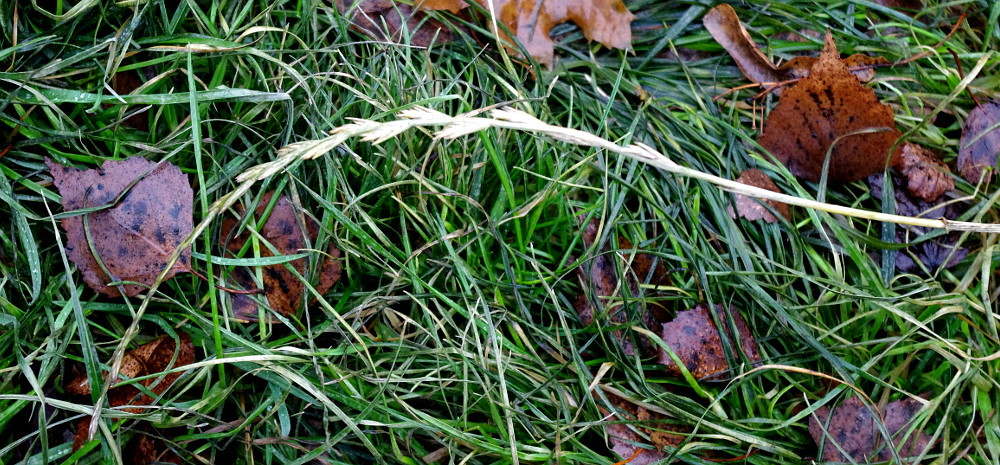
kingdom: Plantae
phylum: Tracheophyta
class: Liliopsida
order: Poales
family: Poaceae
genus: Lolium
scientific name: Lolium perenne
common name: Perennial ryegrass
